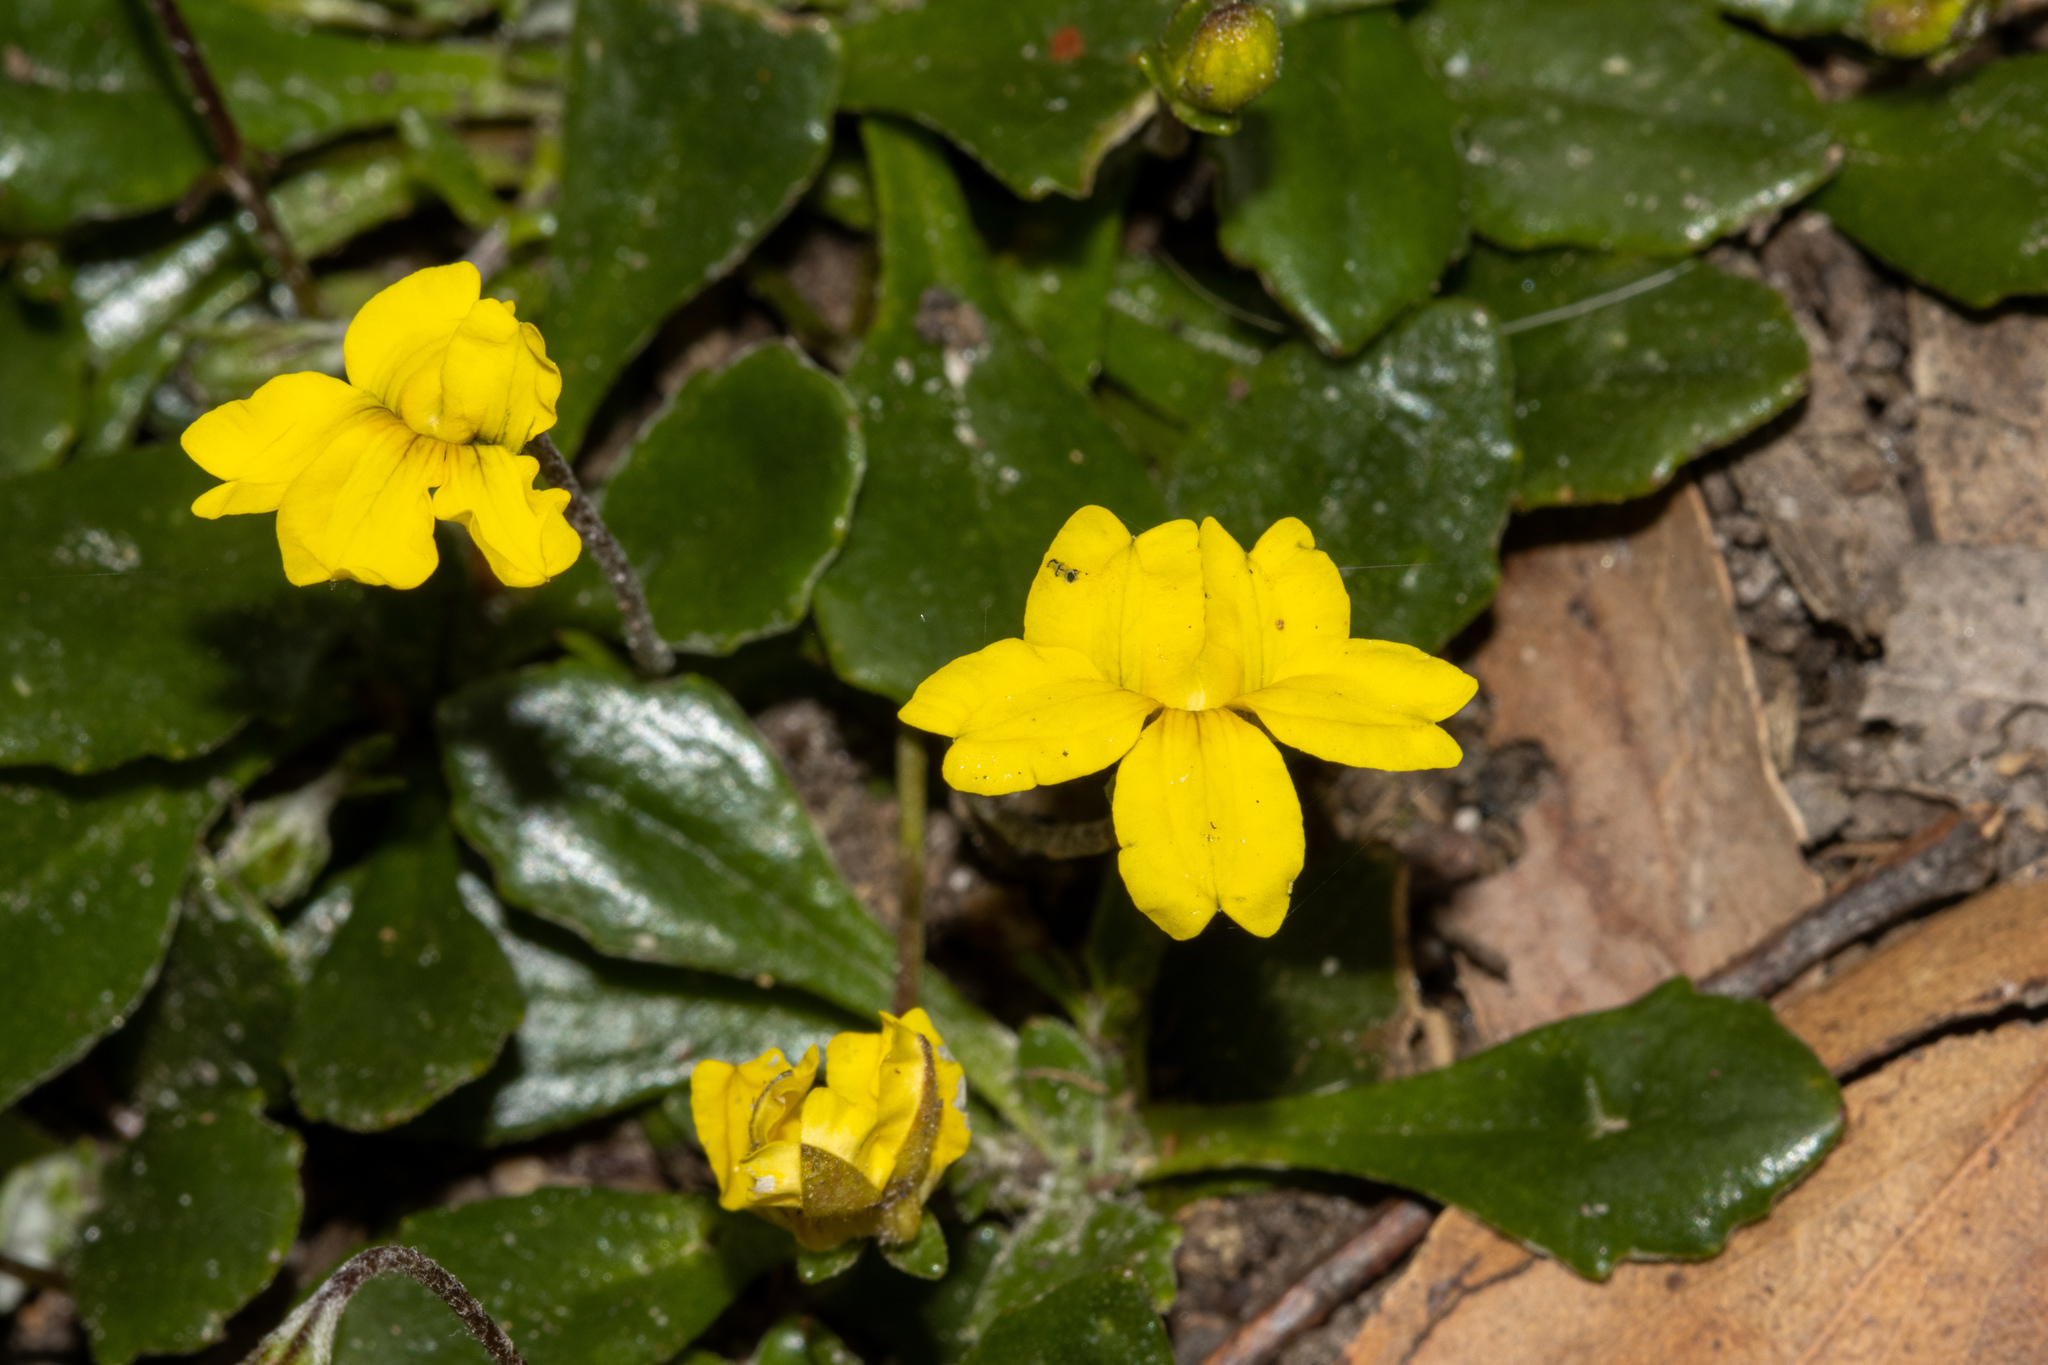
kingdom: Plantae
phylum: Tracheophyta
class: Magnoliopsida
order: Asterales
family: Goodeniaceae
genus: Goodenia
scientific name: Goodenia blackiana
